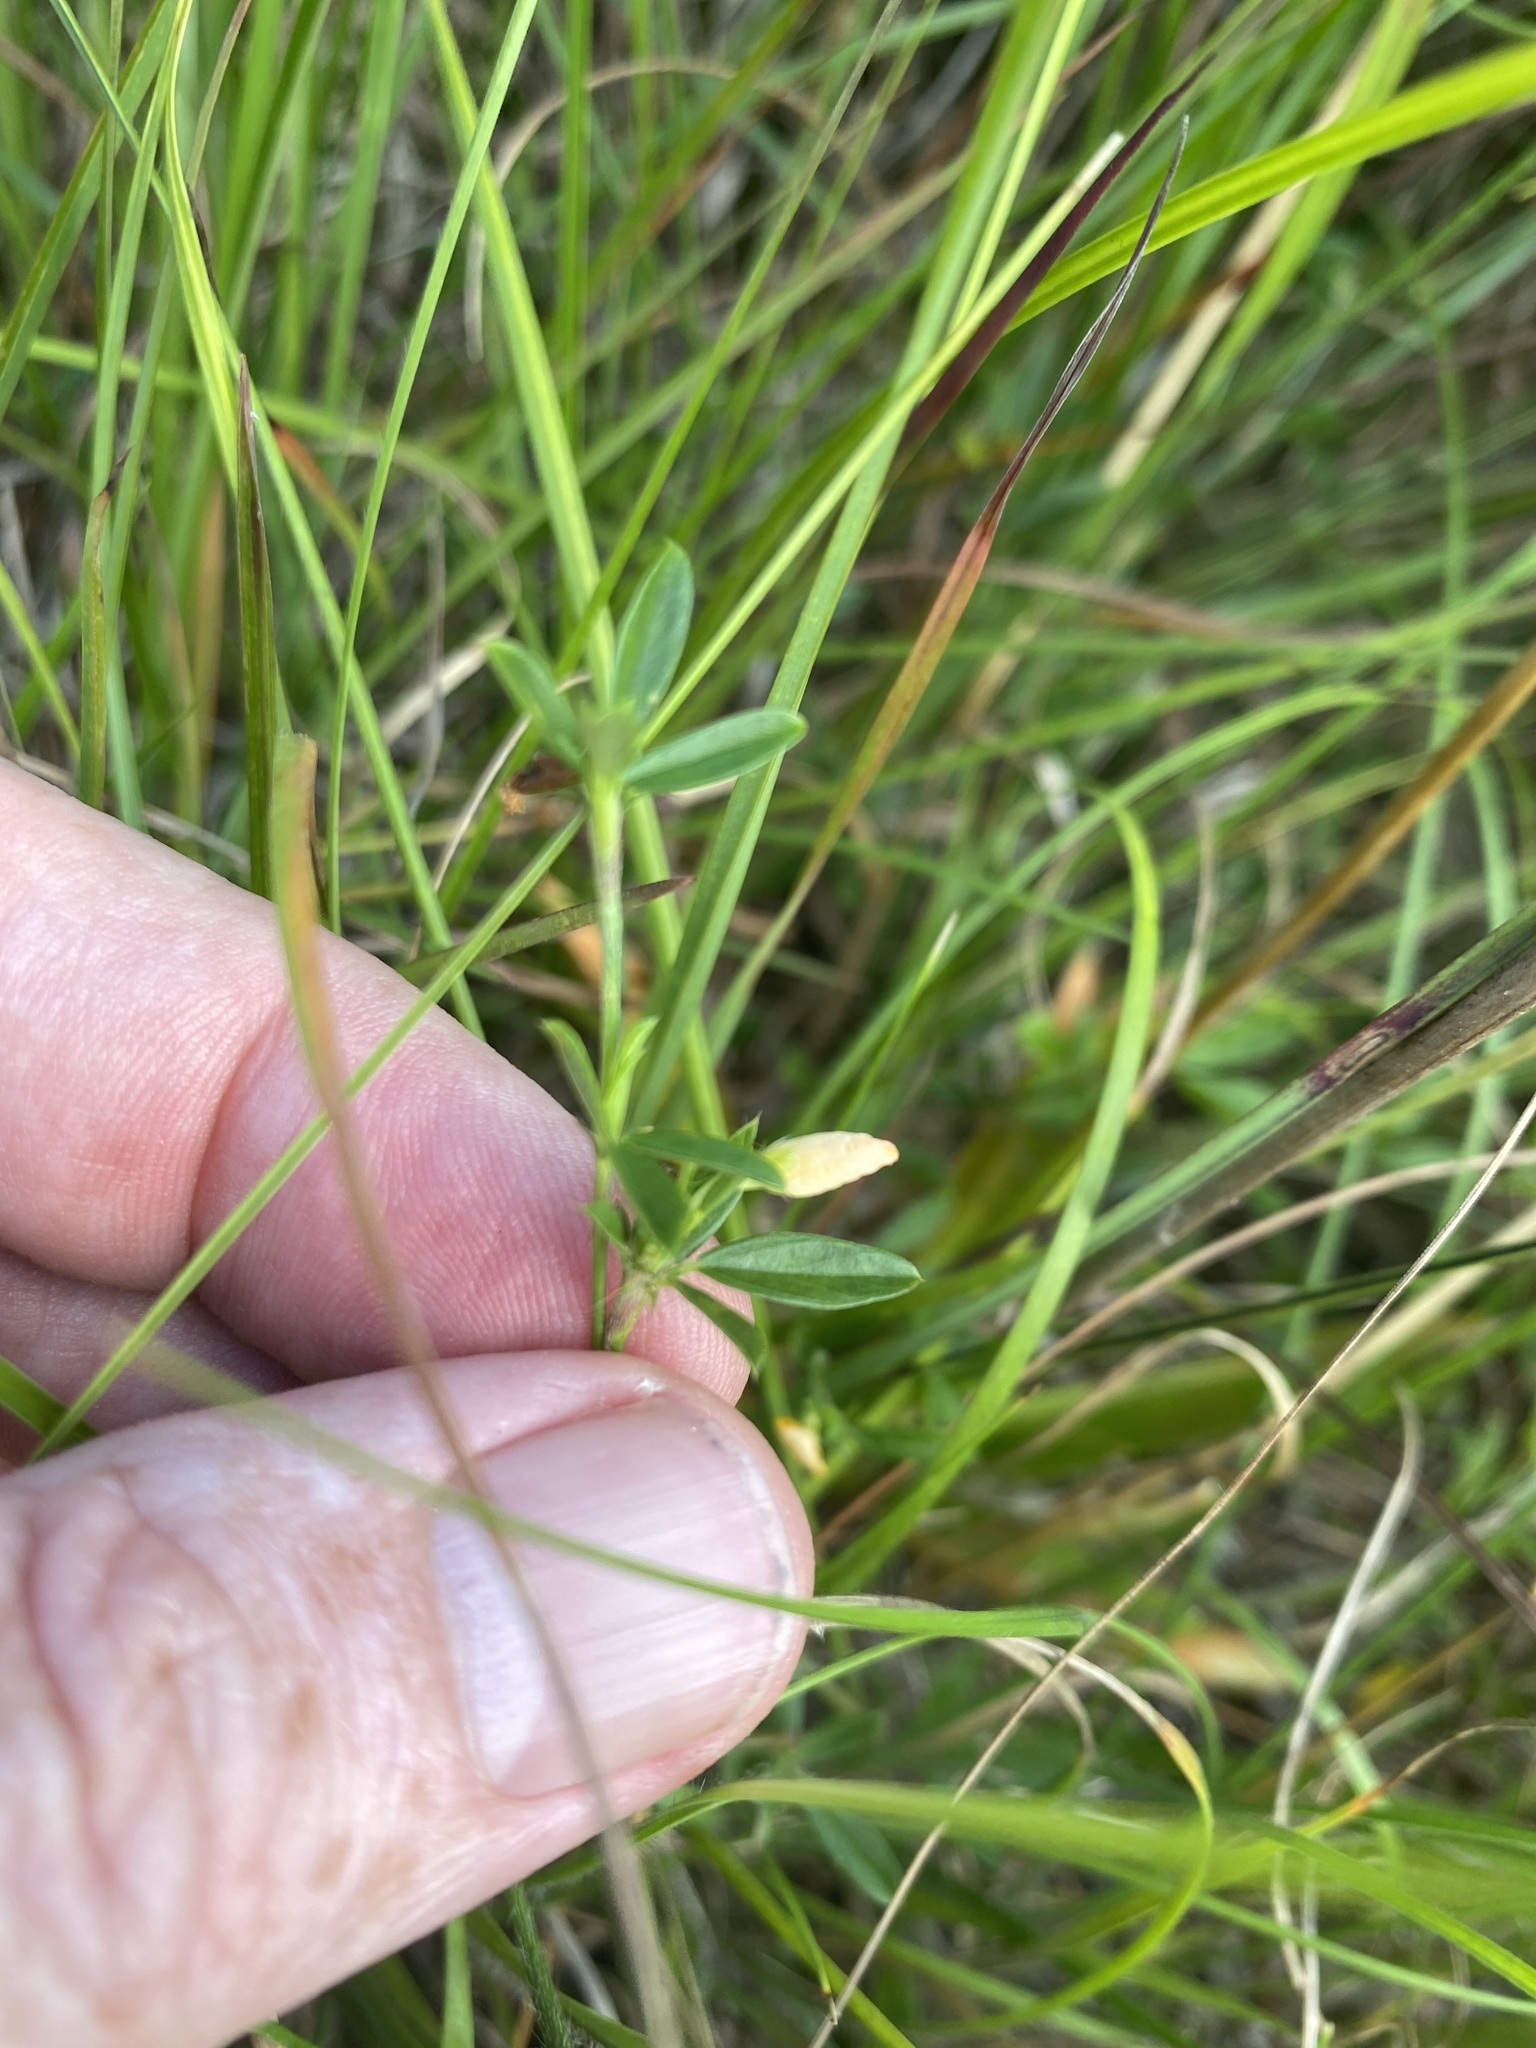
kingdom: Plantae
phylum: Tracheophyta
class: Magnoliopsida
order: Fabales
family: Fabaceae
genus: Stylosanthes
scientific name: Stylosanthes biflora
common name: Two-flower pencil-flower
